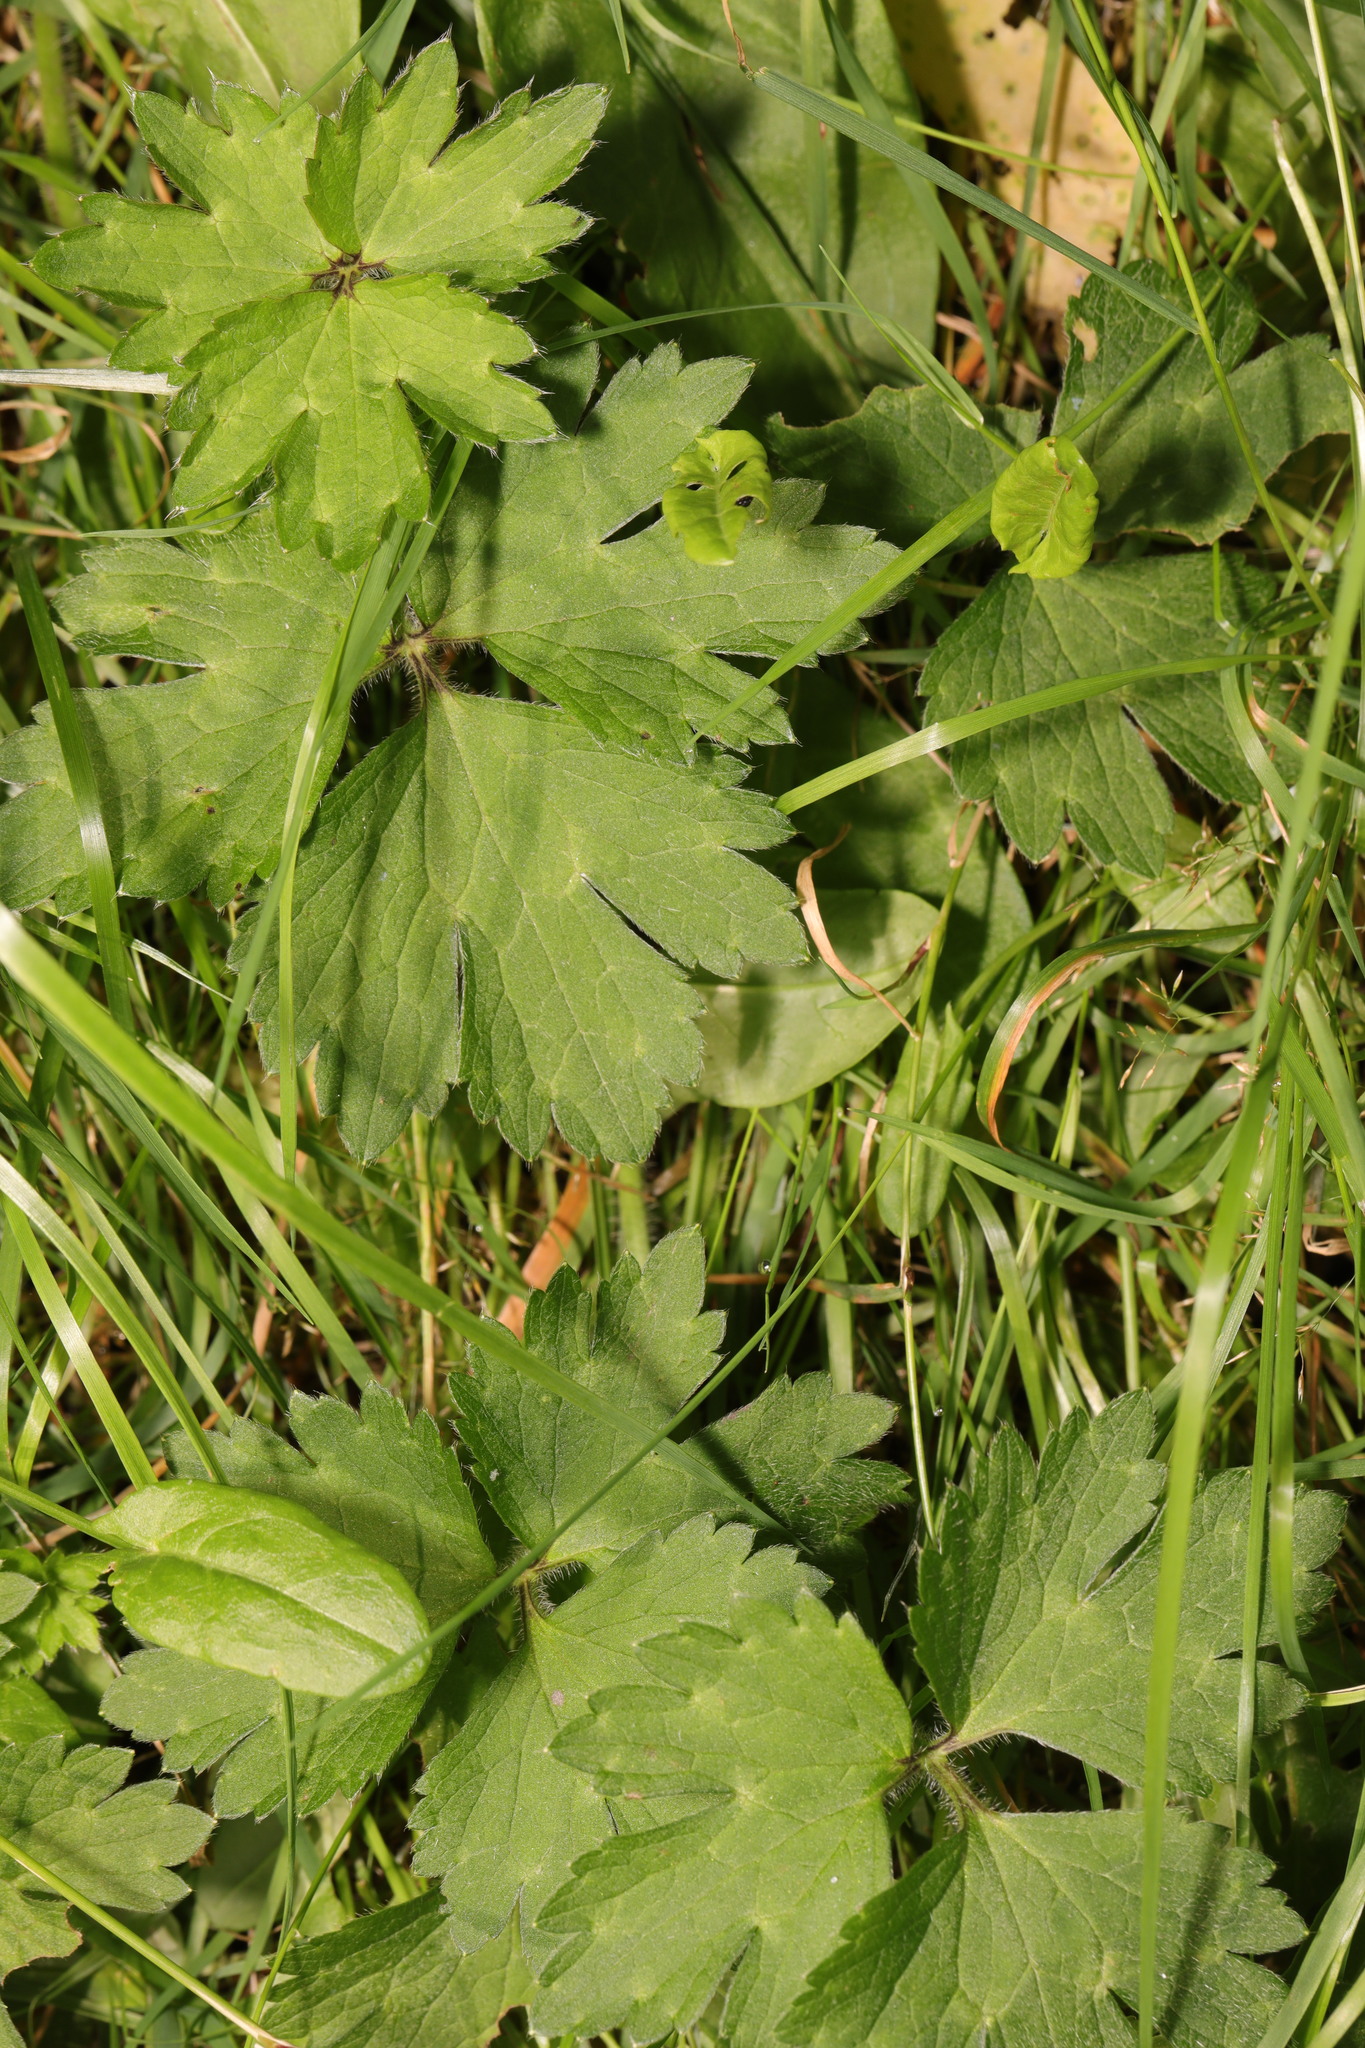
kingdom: Plantae
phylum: Tracheophyta
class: Magnoliopsida
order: Ranunculales
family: Ranunculaceae
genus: Ranunculus
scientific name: Ranunculus repens
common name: Creeping buttercup
